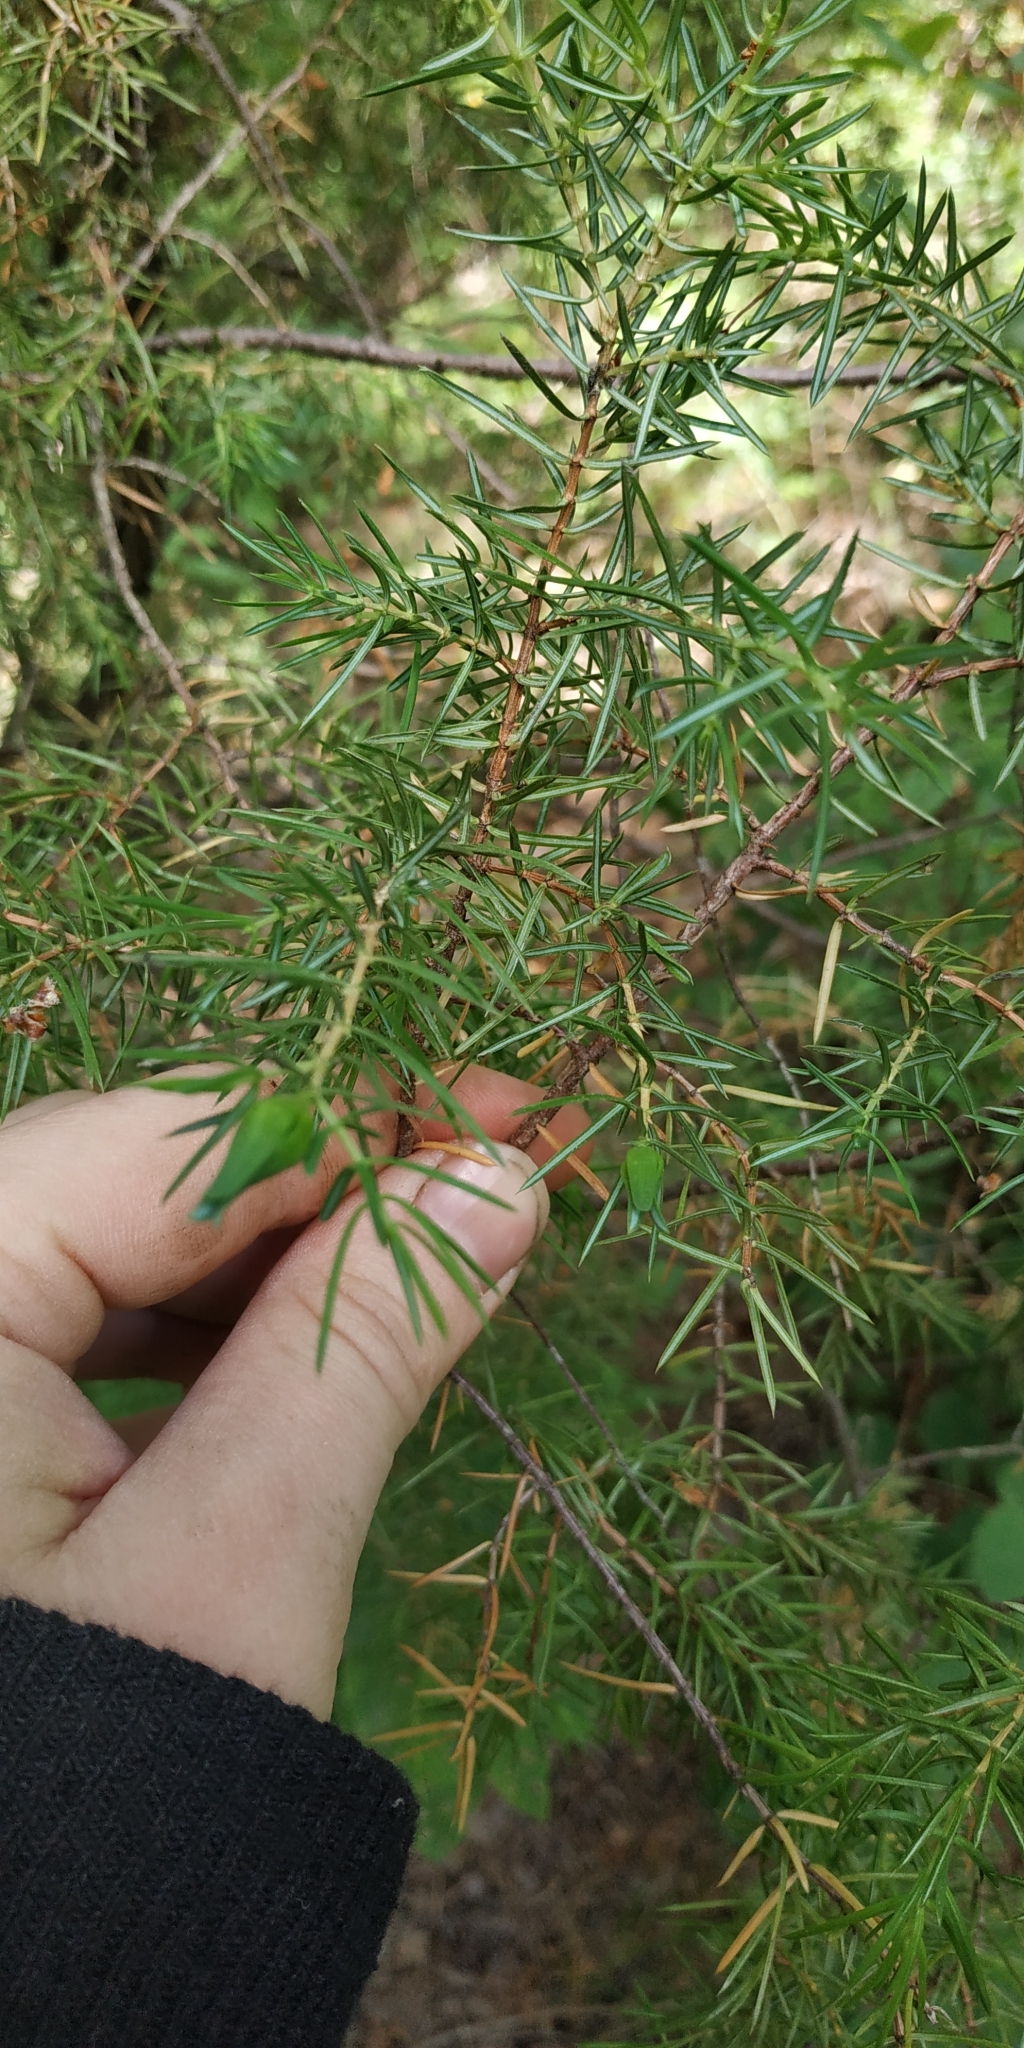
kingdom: Plantae
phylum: Tracheophyta
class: Pinopsida
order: Pinales
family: Cupressaceae
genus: Juniperus
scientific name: Juniperus communis
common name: Common juniper
